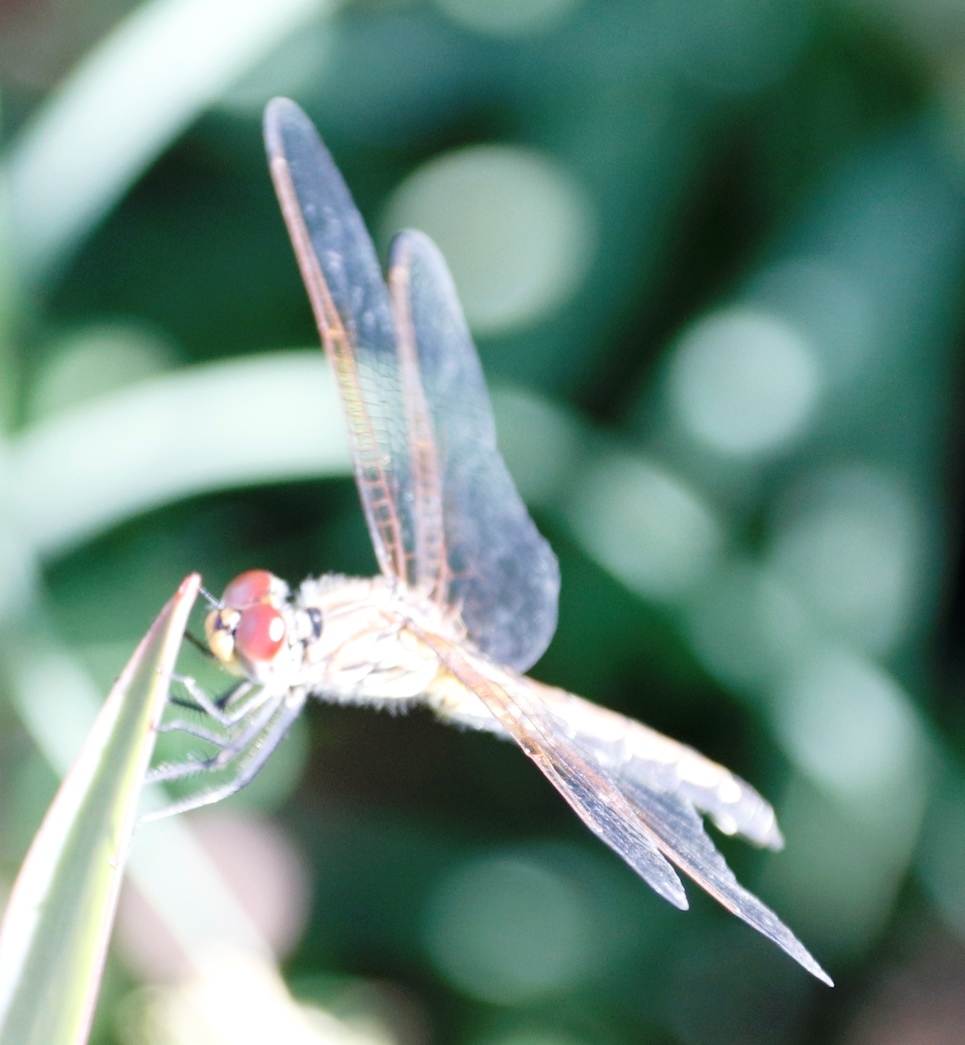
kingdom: Animalia
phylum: Arthropoda
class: Insecta
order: Odonata
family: Libellulidae
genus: Trithemis
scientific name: Trithemis arteriosa
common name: Red-veined dropwing
